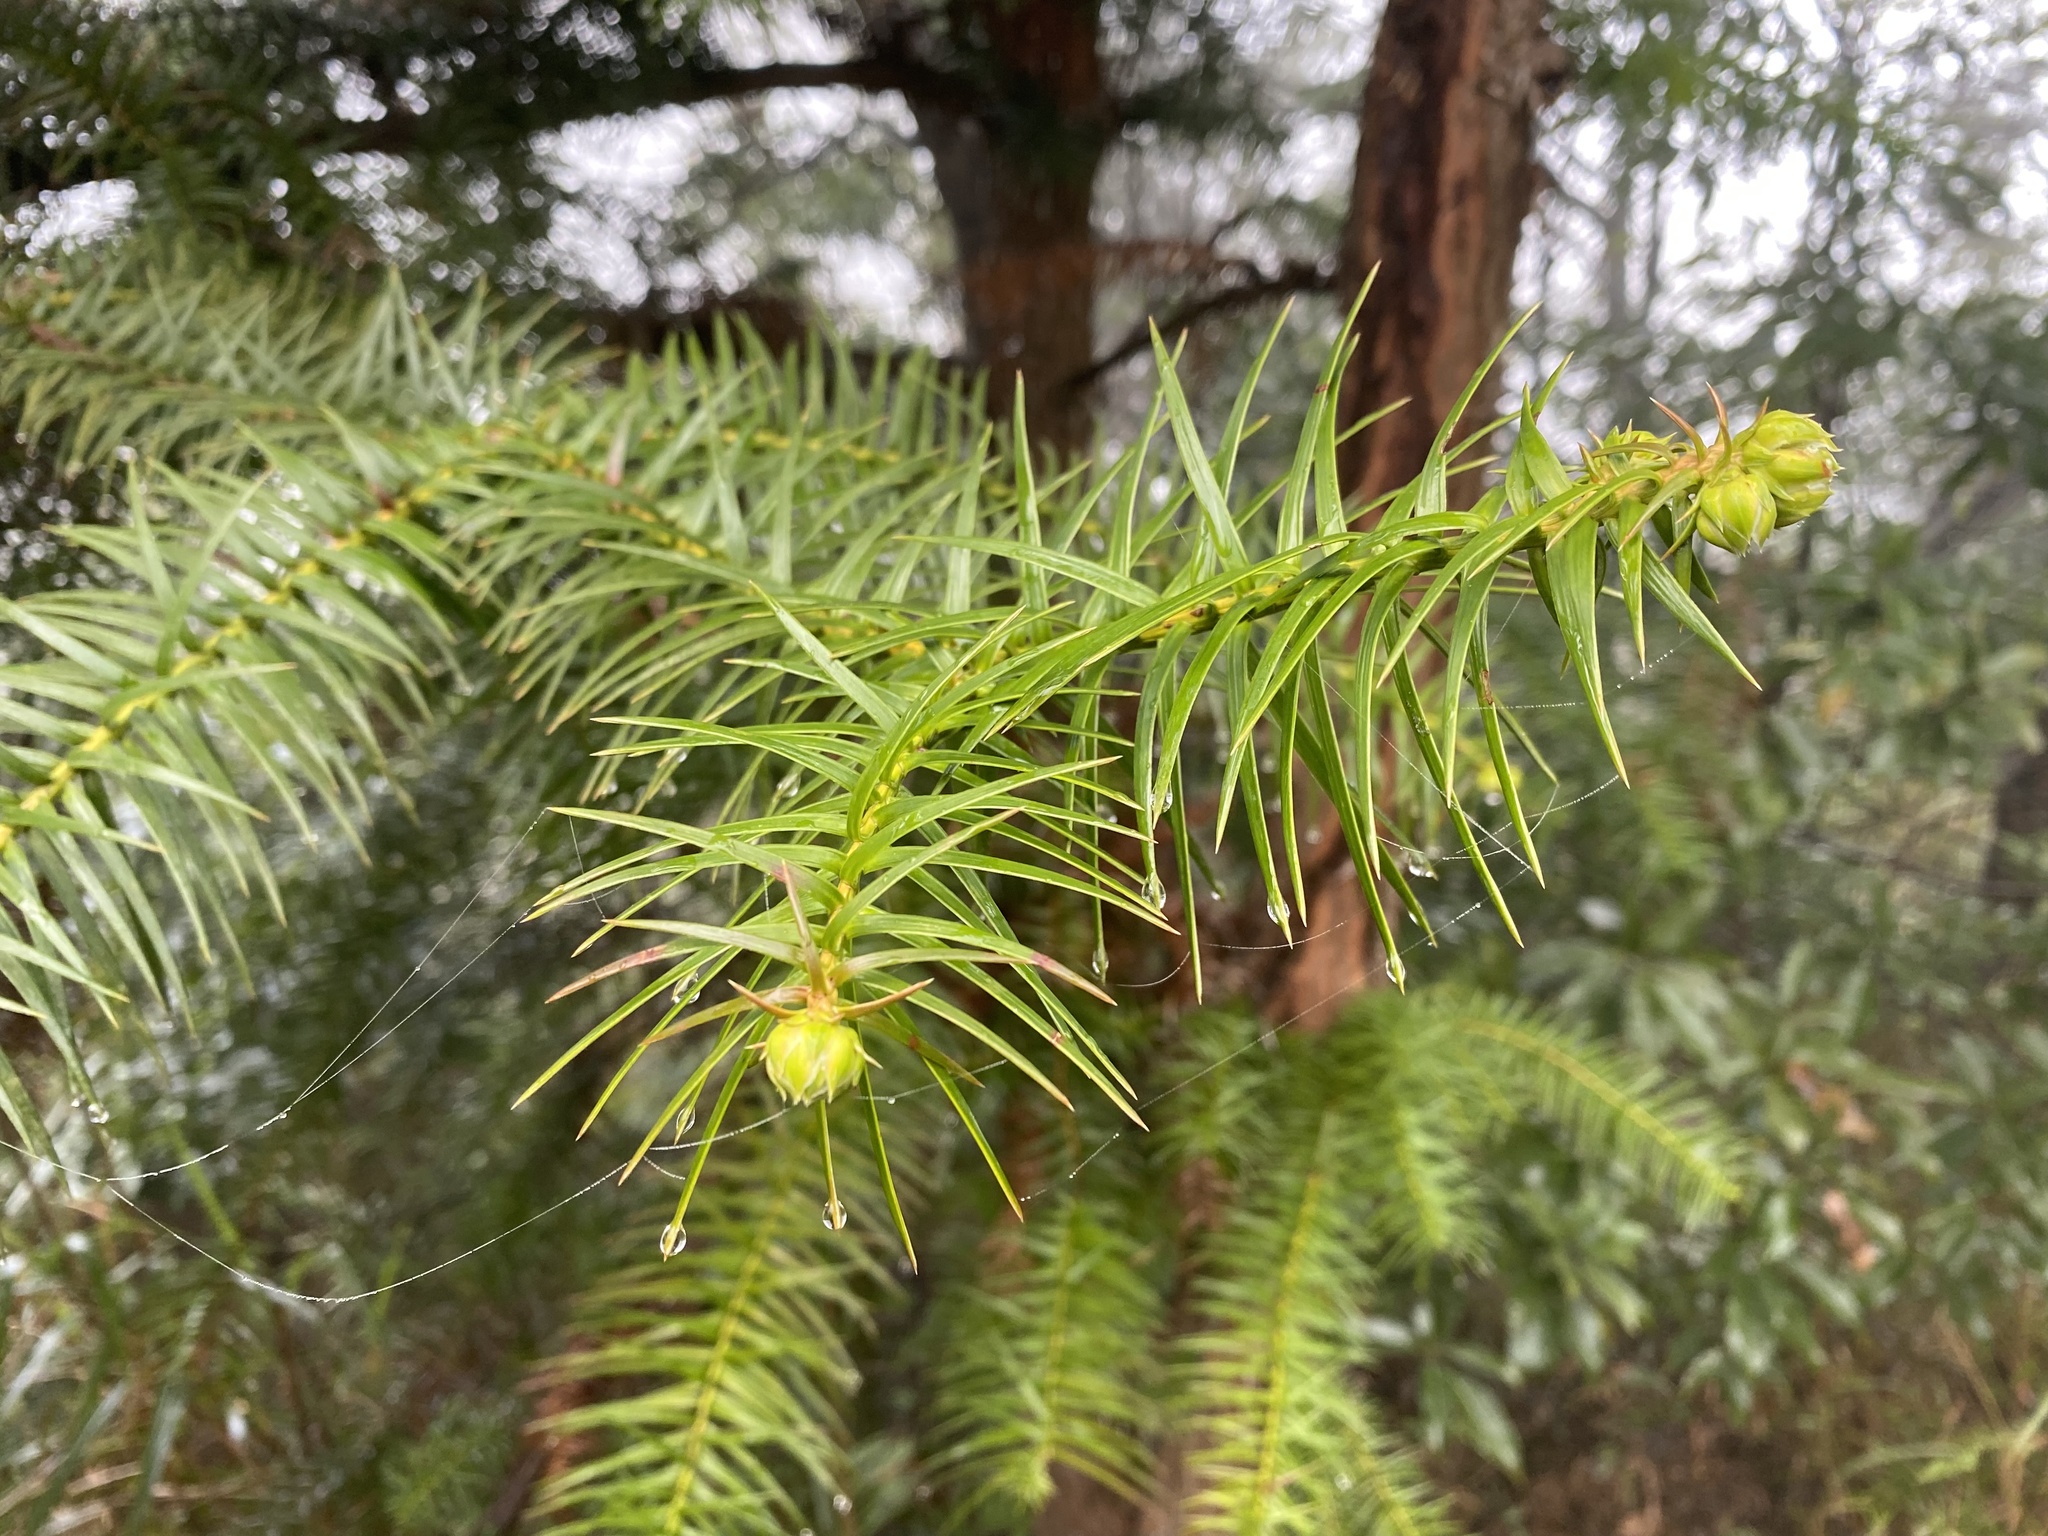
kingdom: Plantae
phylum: Tracheophyta
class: Pinopsida
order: Pinales
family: Cupressaceae
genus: Cunninghamia
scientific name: Cunninghamia lanceolata
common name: Chinese fir
